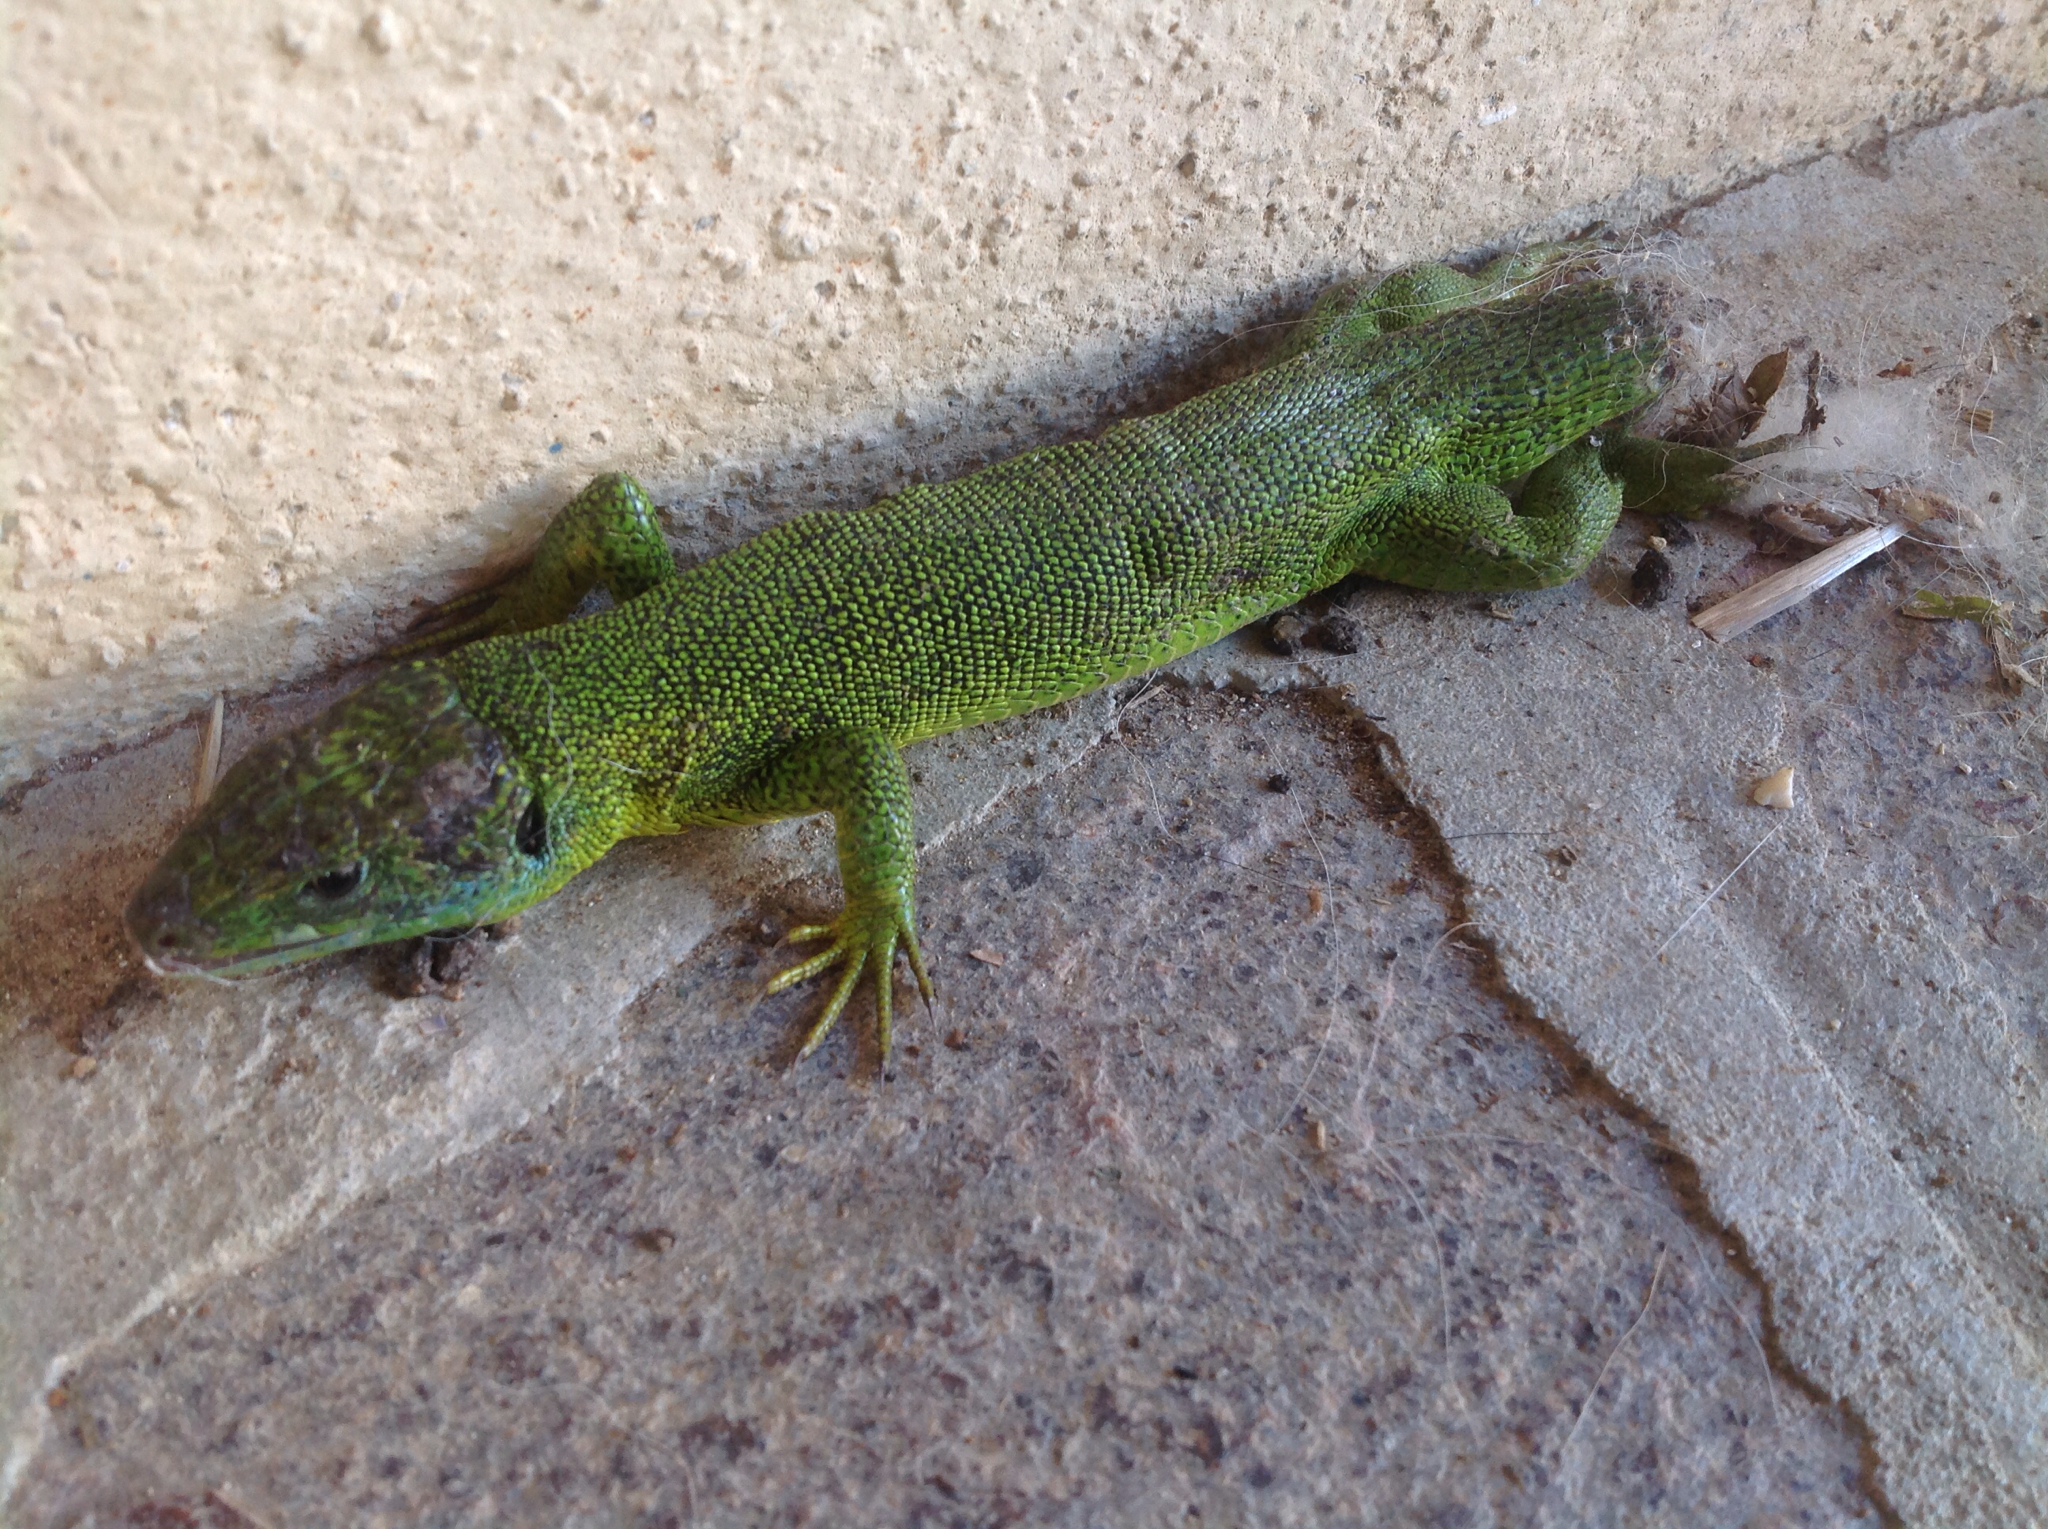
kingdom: Animalia
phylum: Chordata
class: Squamata
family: Lacertidae
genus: Lacerta
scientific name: Lacerta bilineata
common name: Western green lizard
